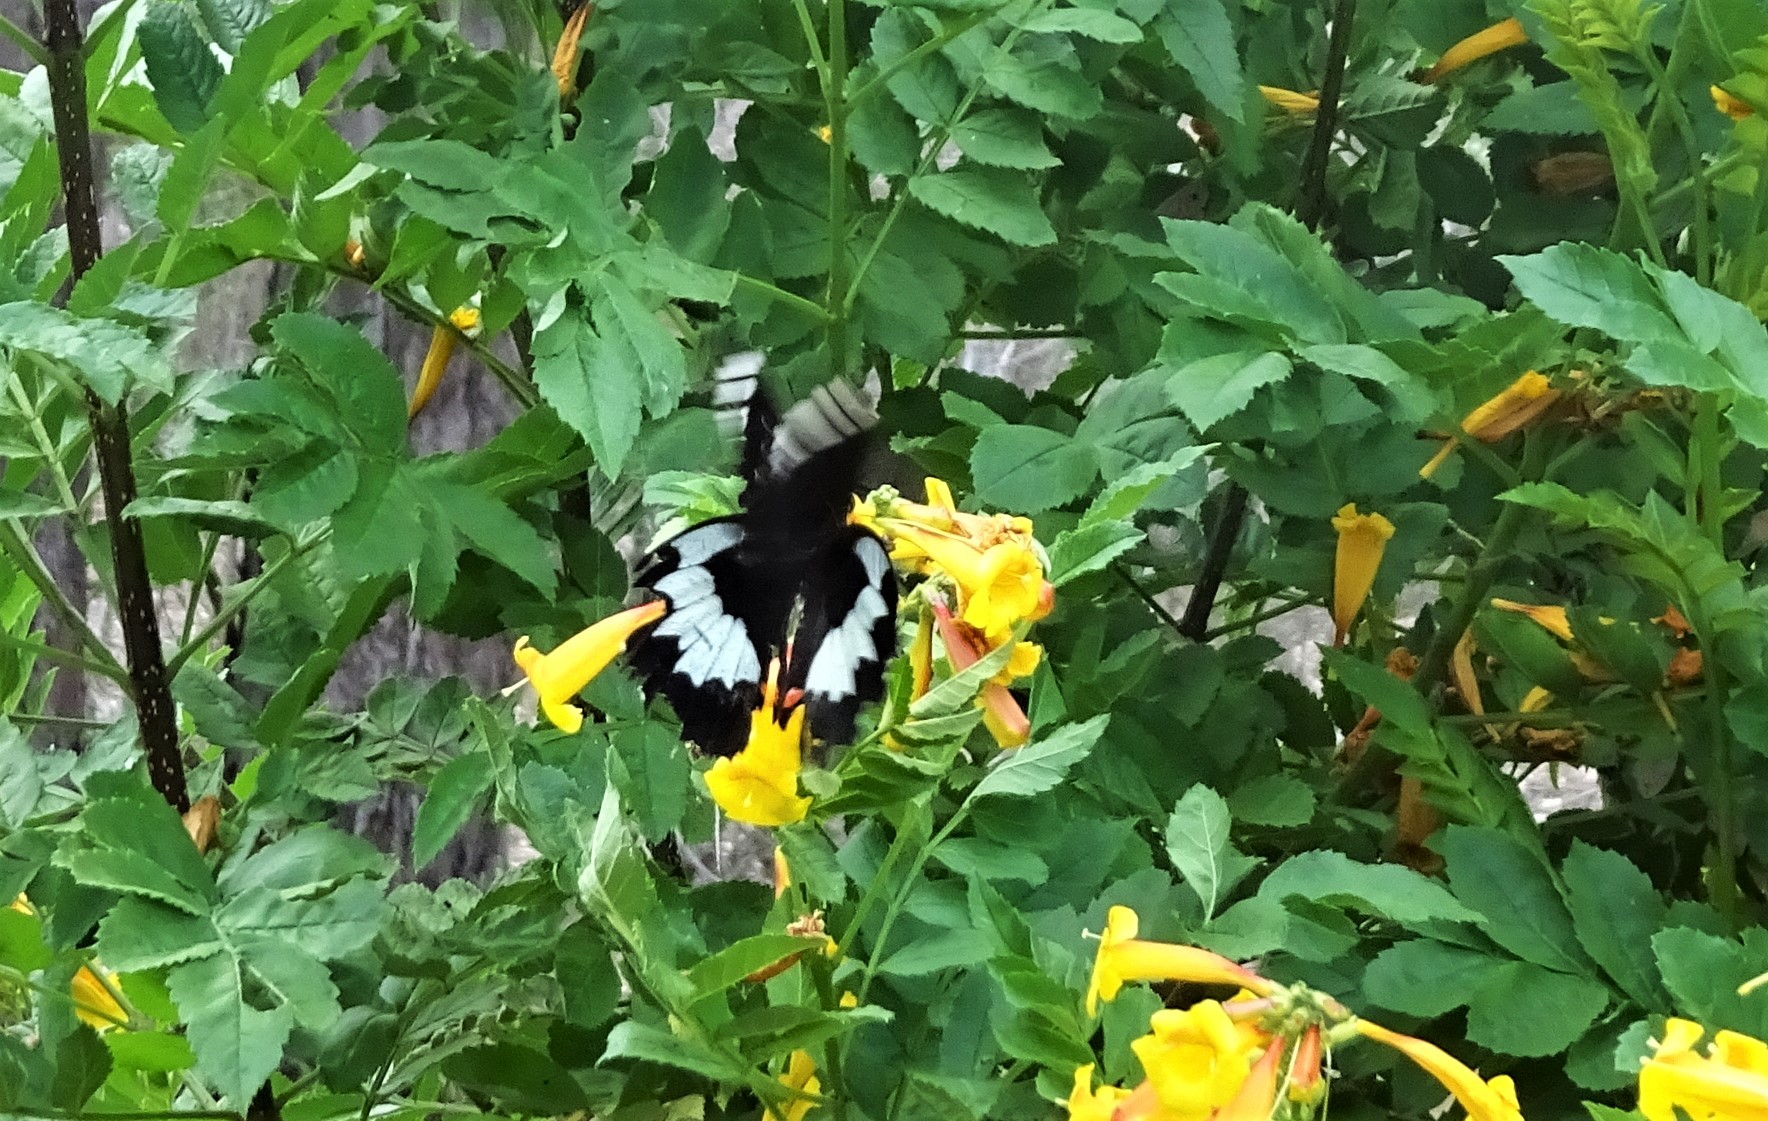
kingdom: Animalia
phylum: Arthropoda
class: Insecta
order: Lepidoptera
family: Papilionidae
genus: Papilio
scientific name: Papilio aegeus
